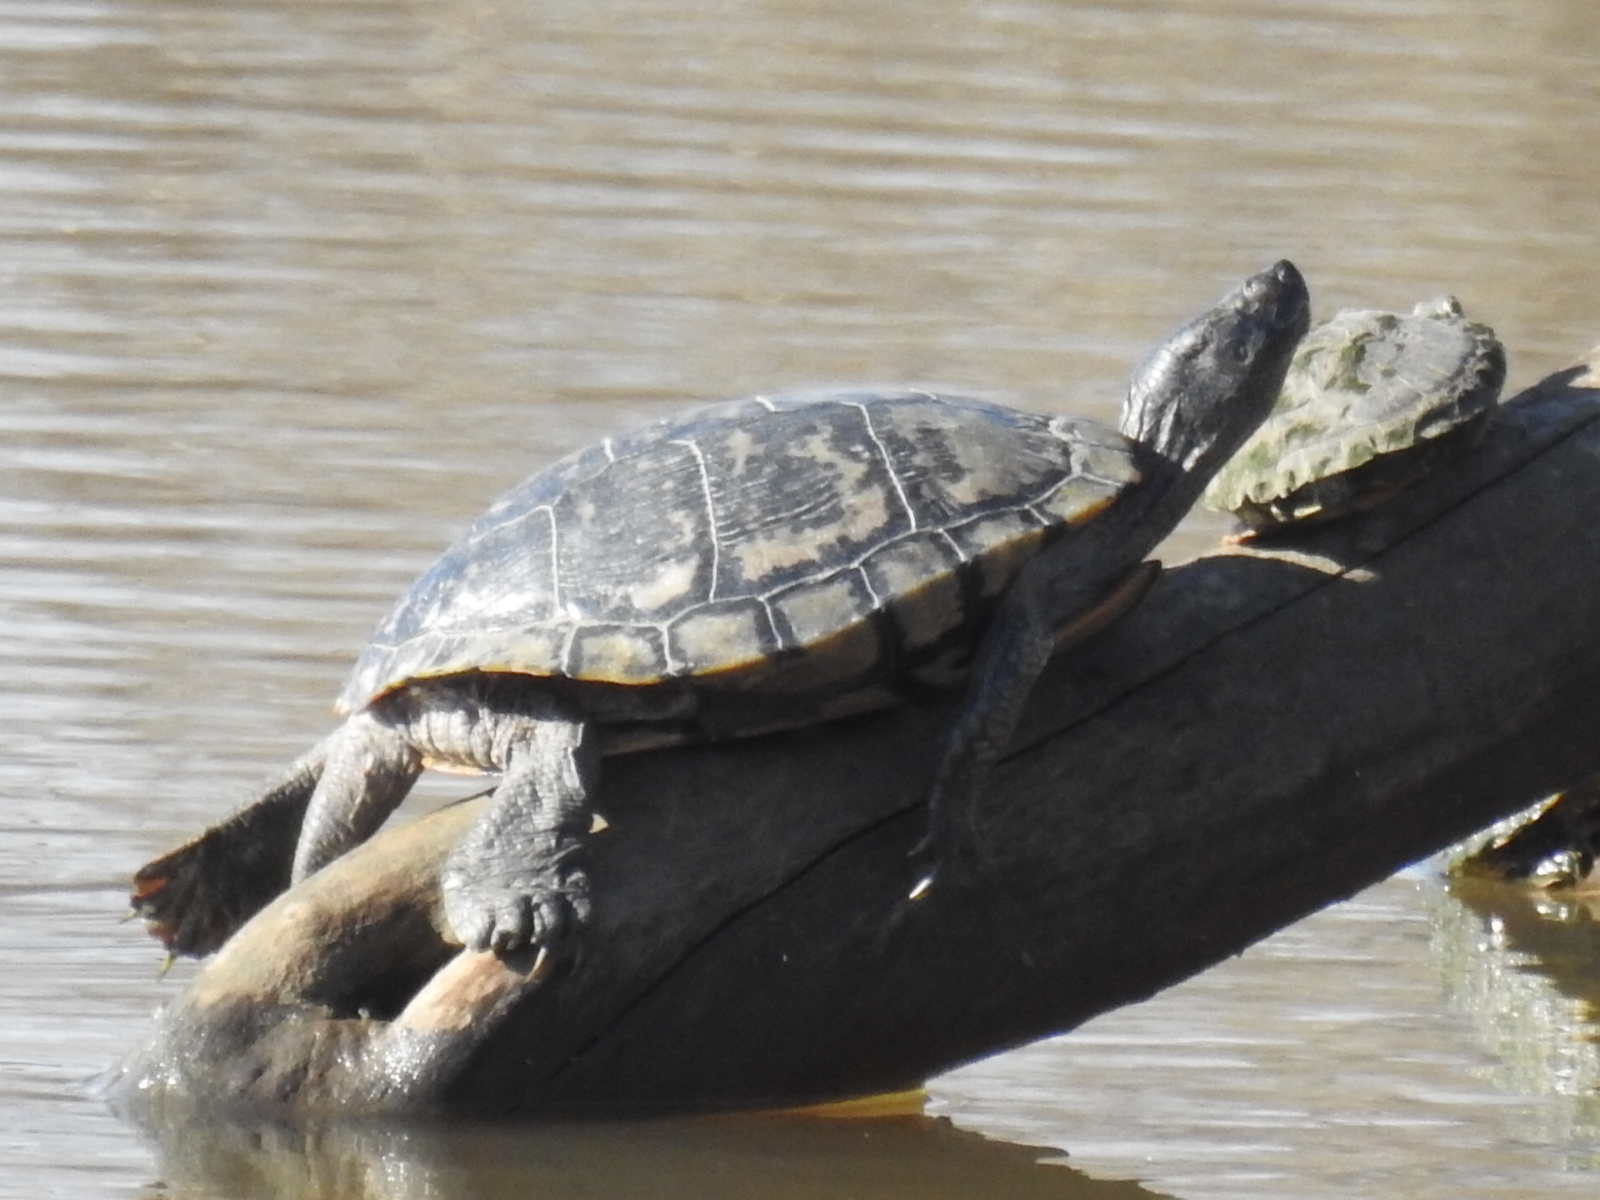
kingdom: Animalia
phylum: Chordata
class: Testudines
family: Emydidae
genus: Trachemys
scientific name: Trachemys scripta
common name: Slider
